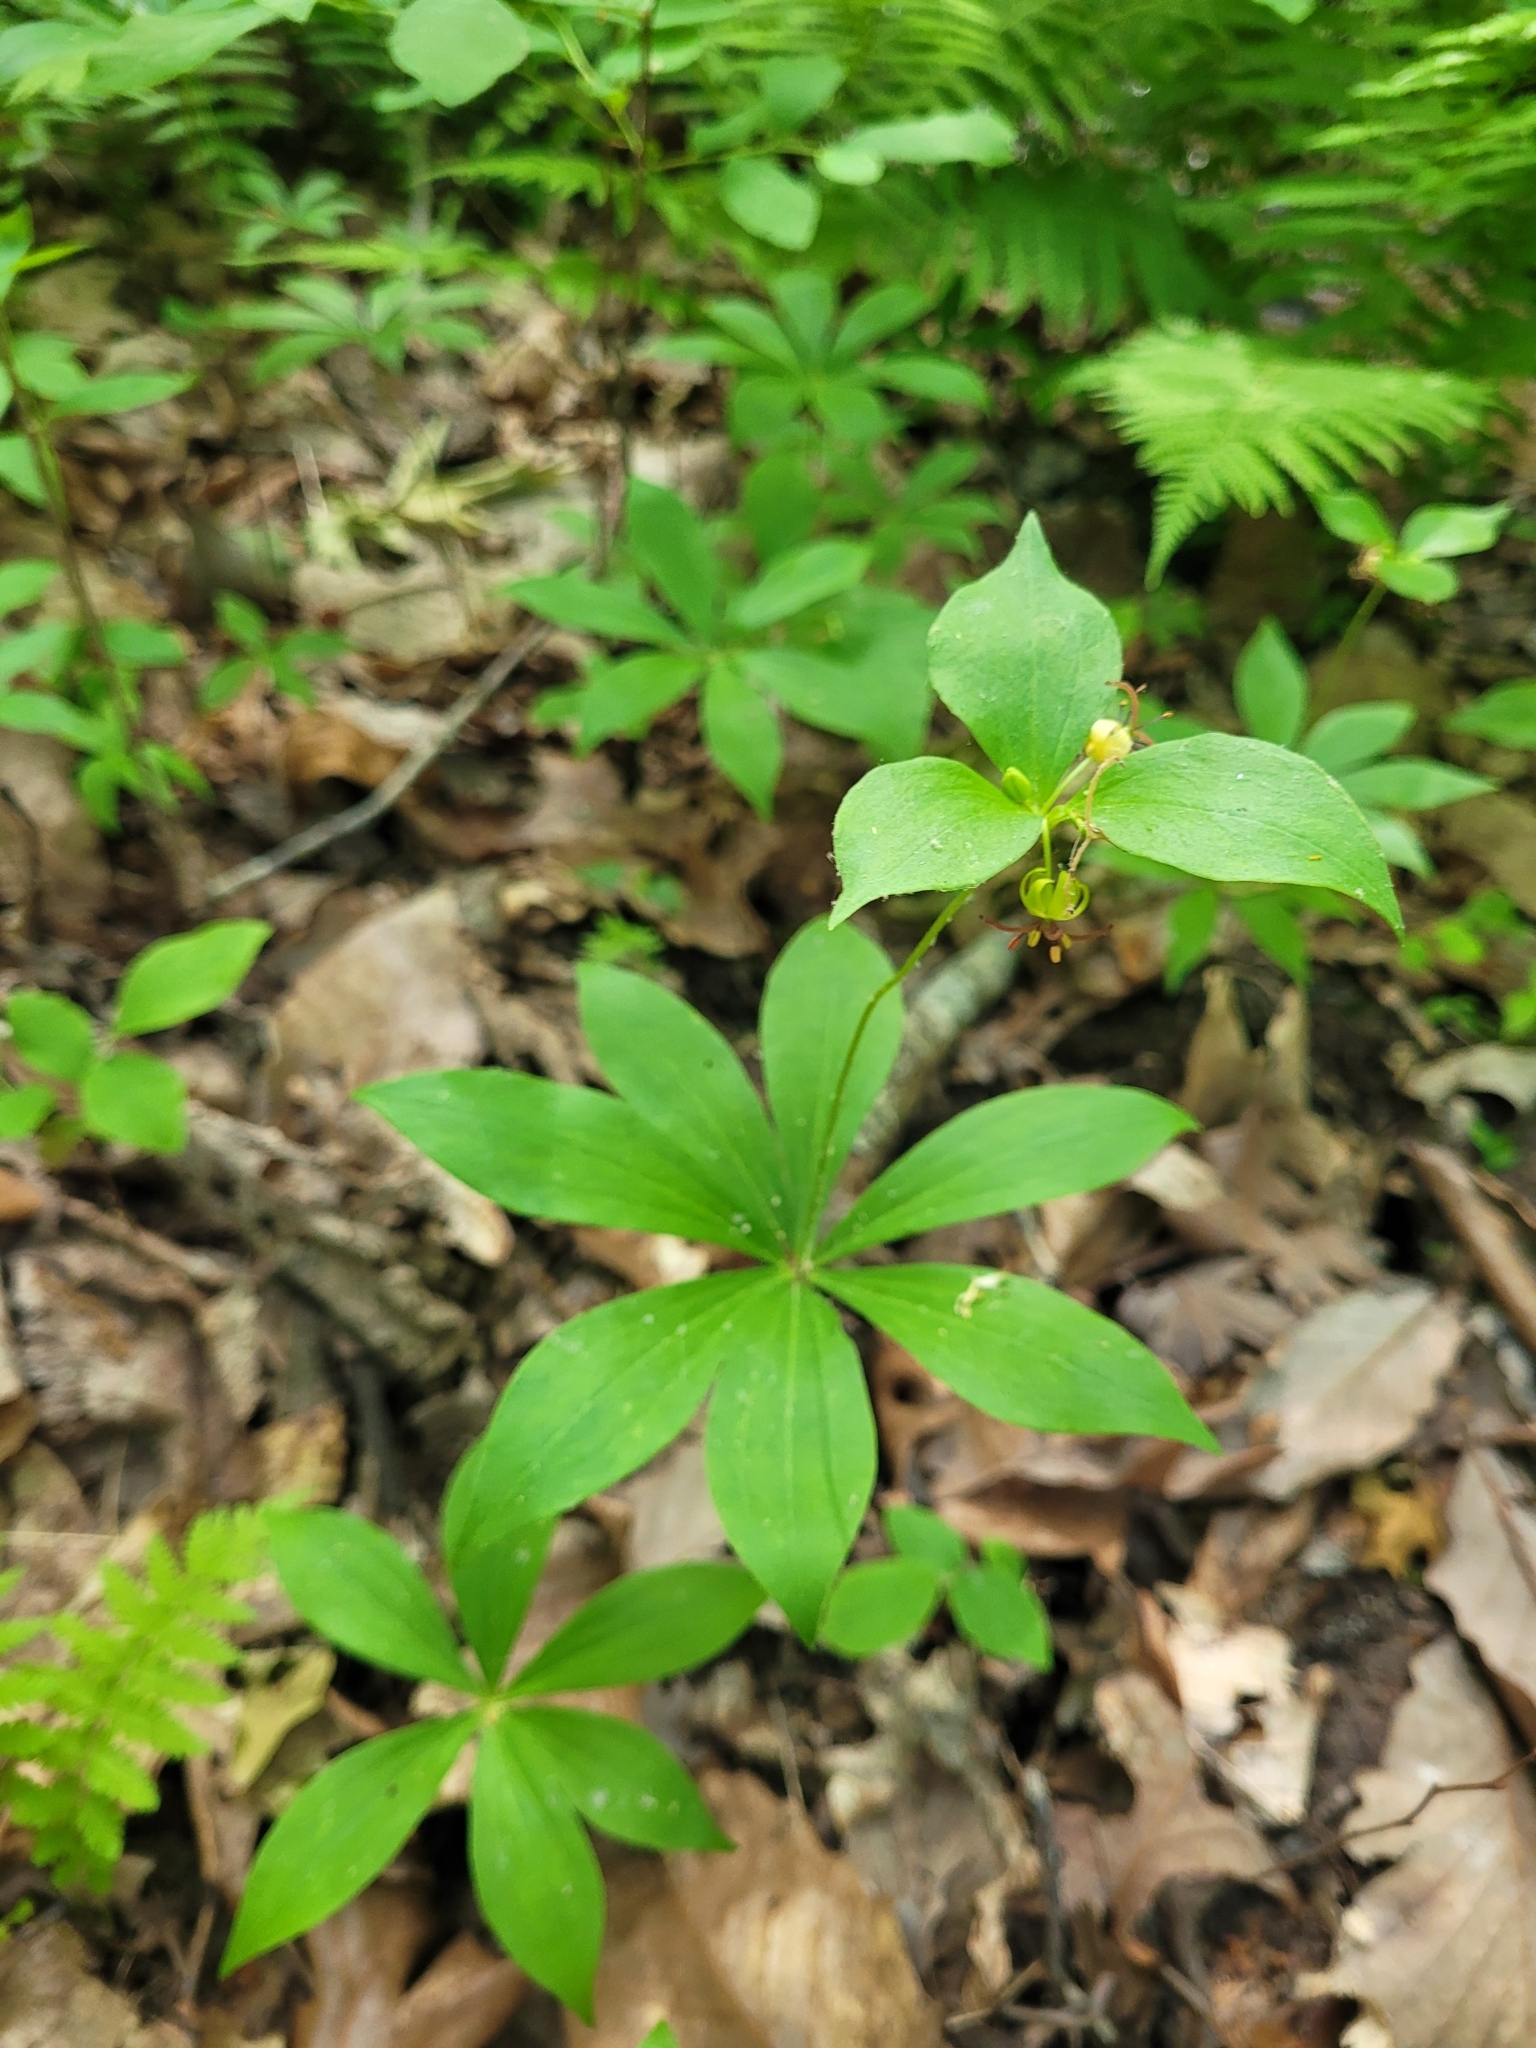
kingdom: Plantae
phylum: Tracheophyta
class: Liliopsida
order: Liliales
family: Liliaceae
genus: Medeola
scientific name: Medeola virginiana
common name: Indian cucumber-root
